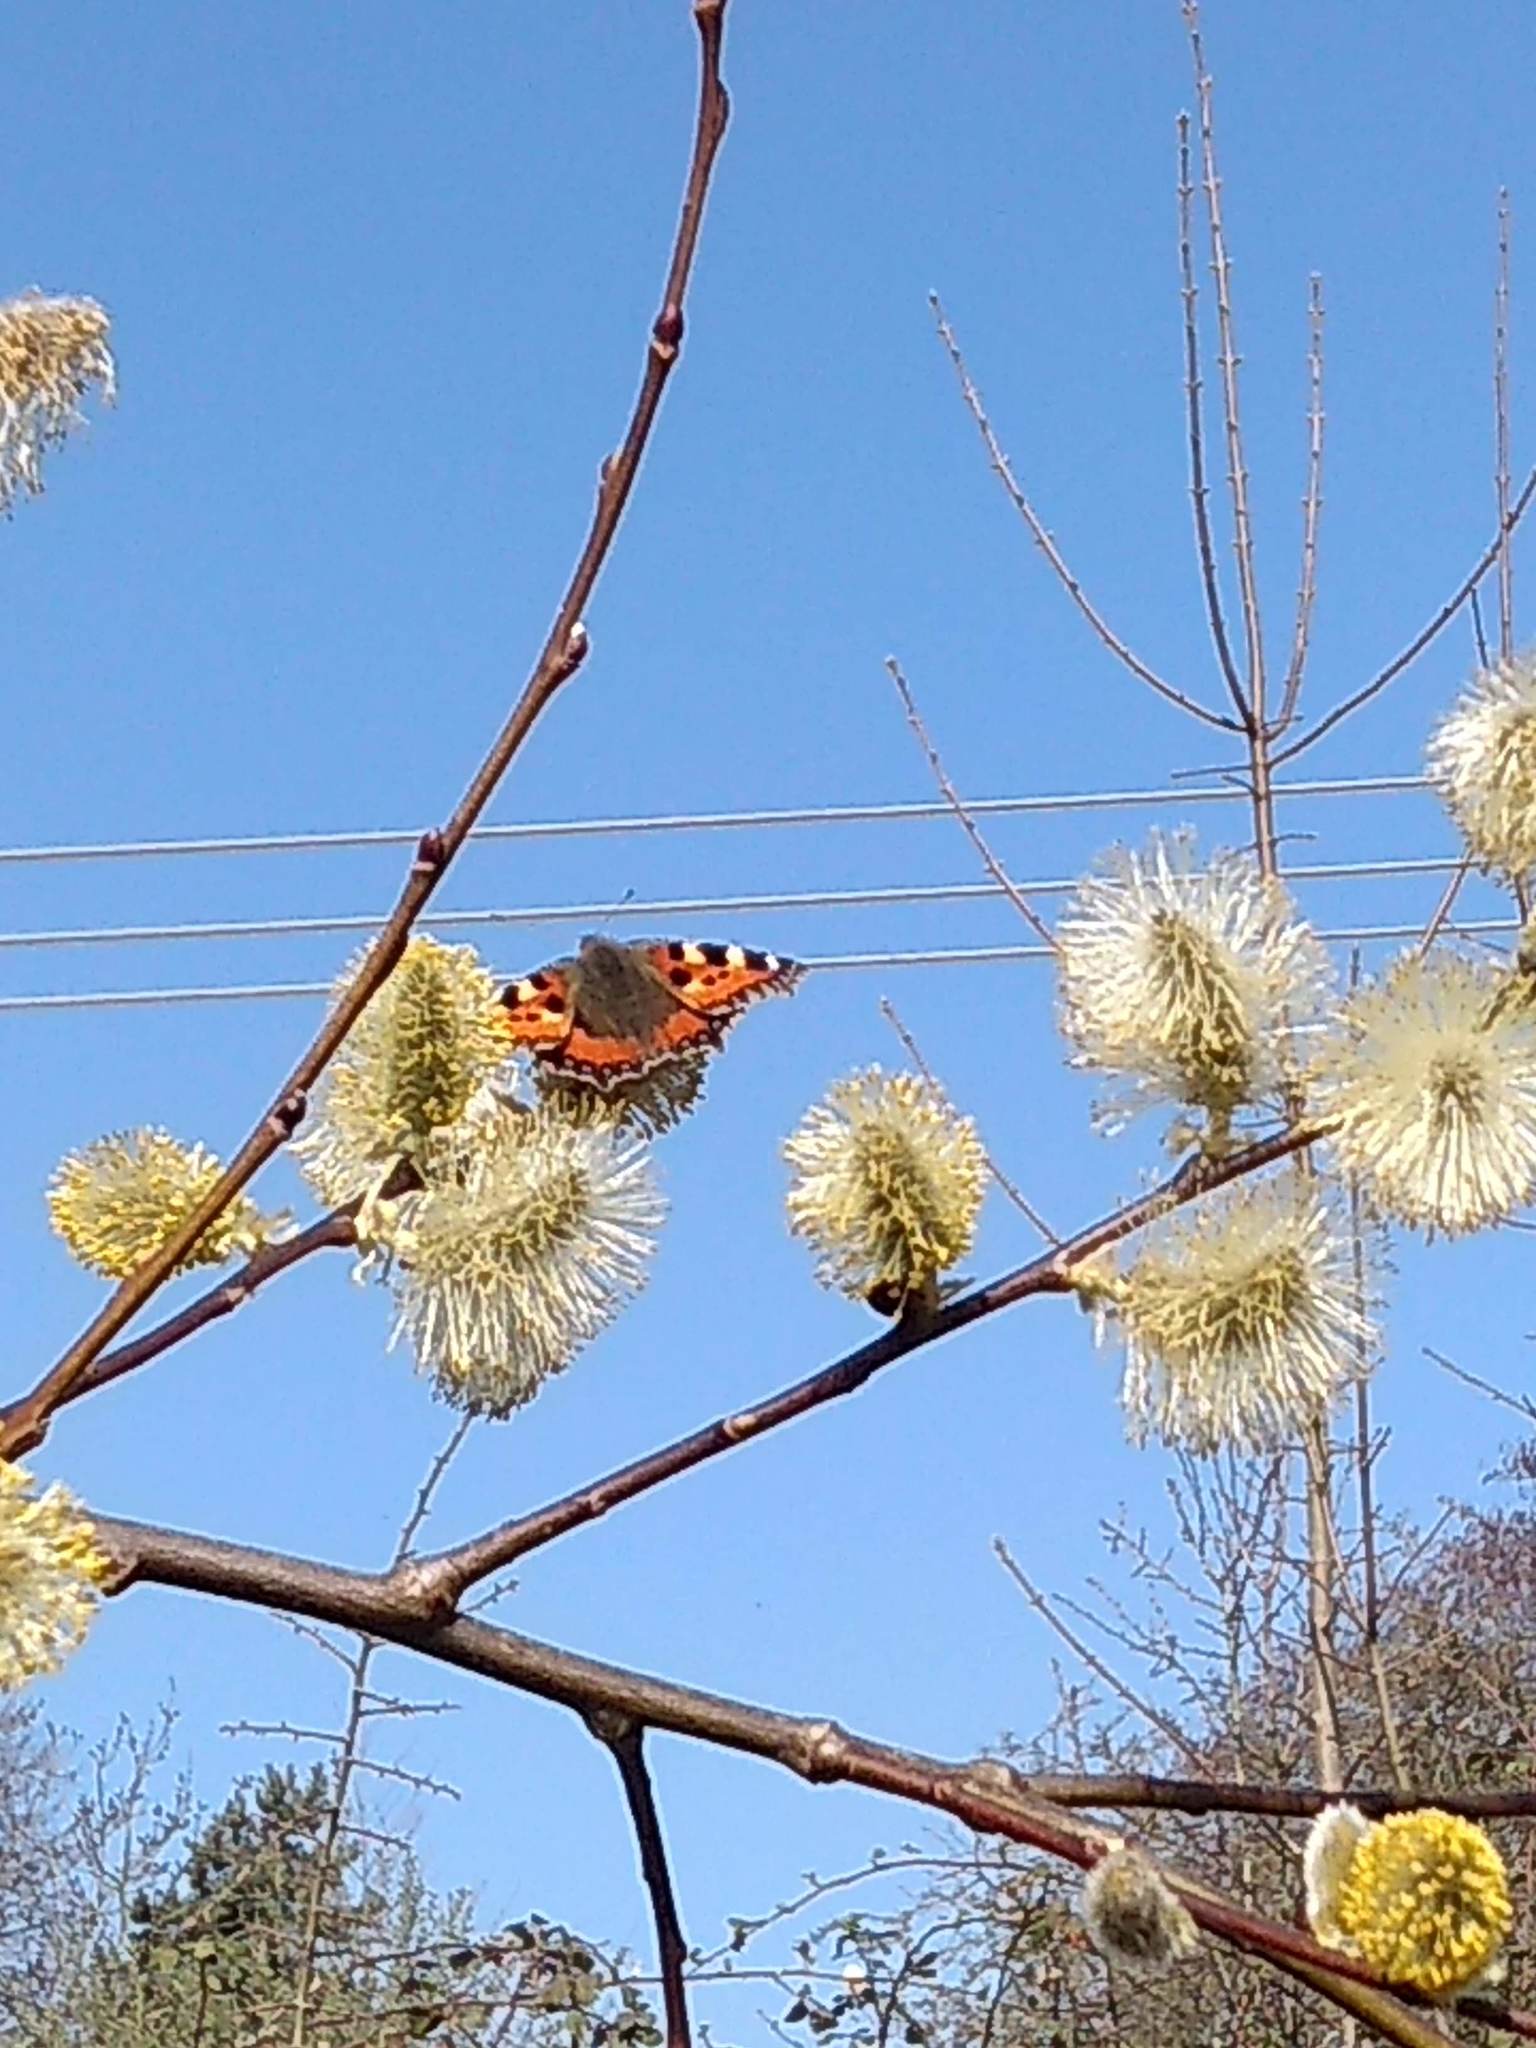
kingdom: Animalia
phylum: Arthropoda
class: Insecta
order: Lepidoptera
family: Nymphalidae
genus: Aglais
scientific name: Aglais urticae
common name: Small tortoiseshell
